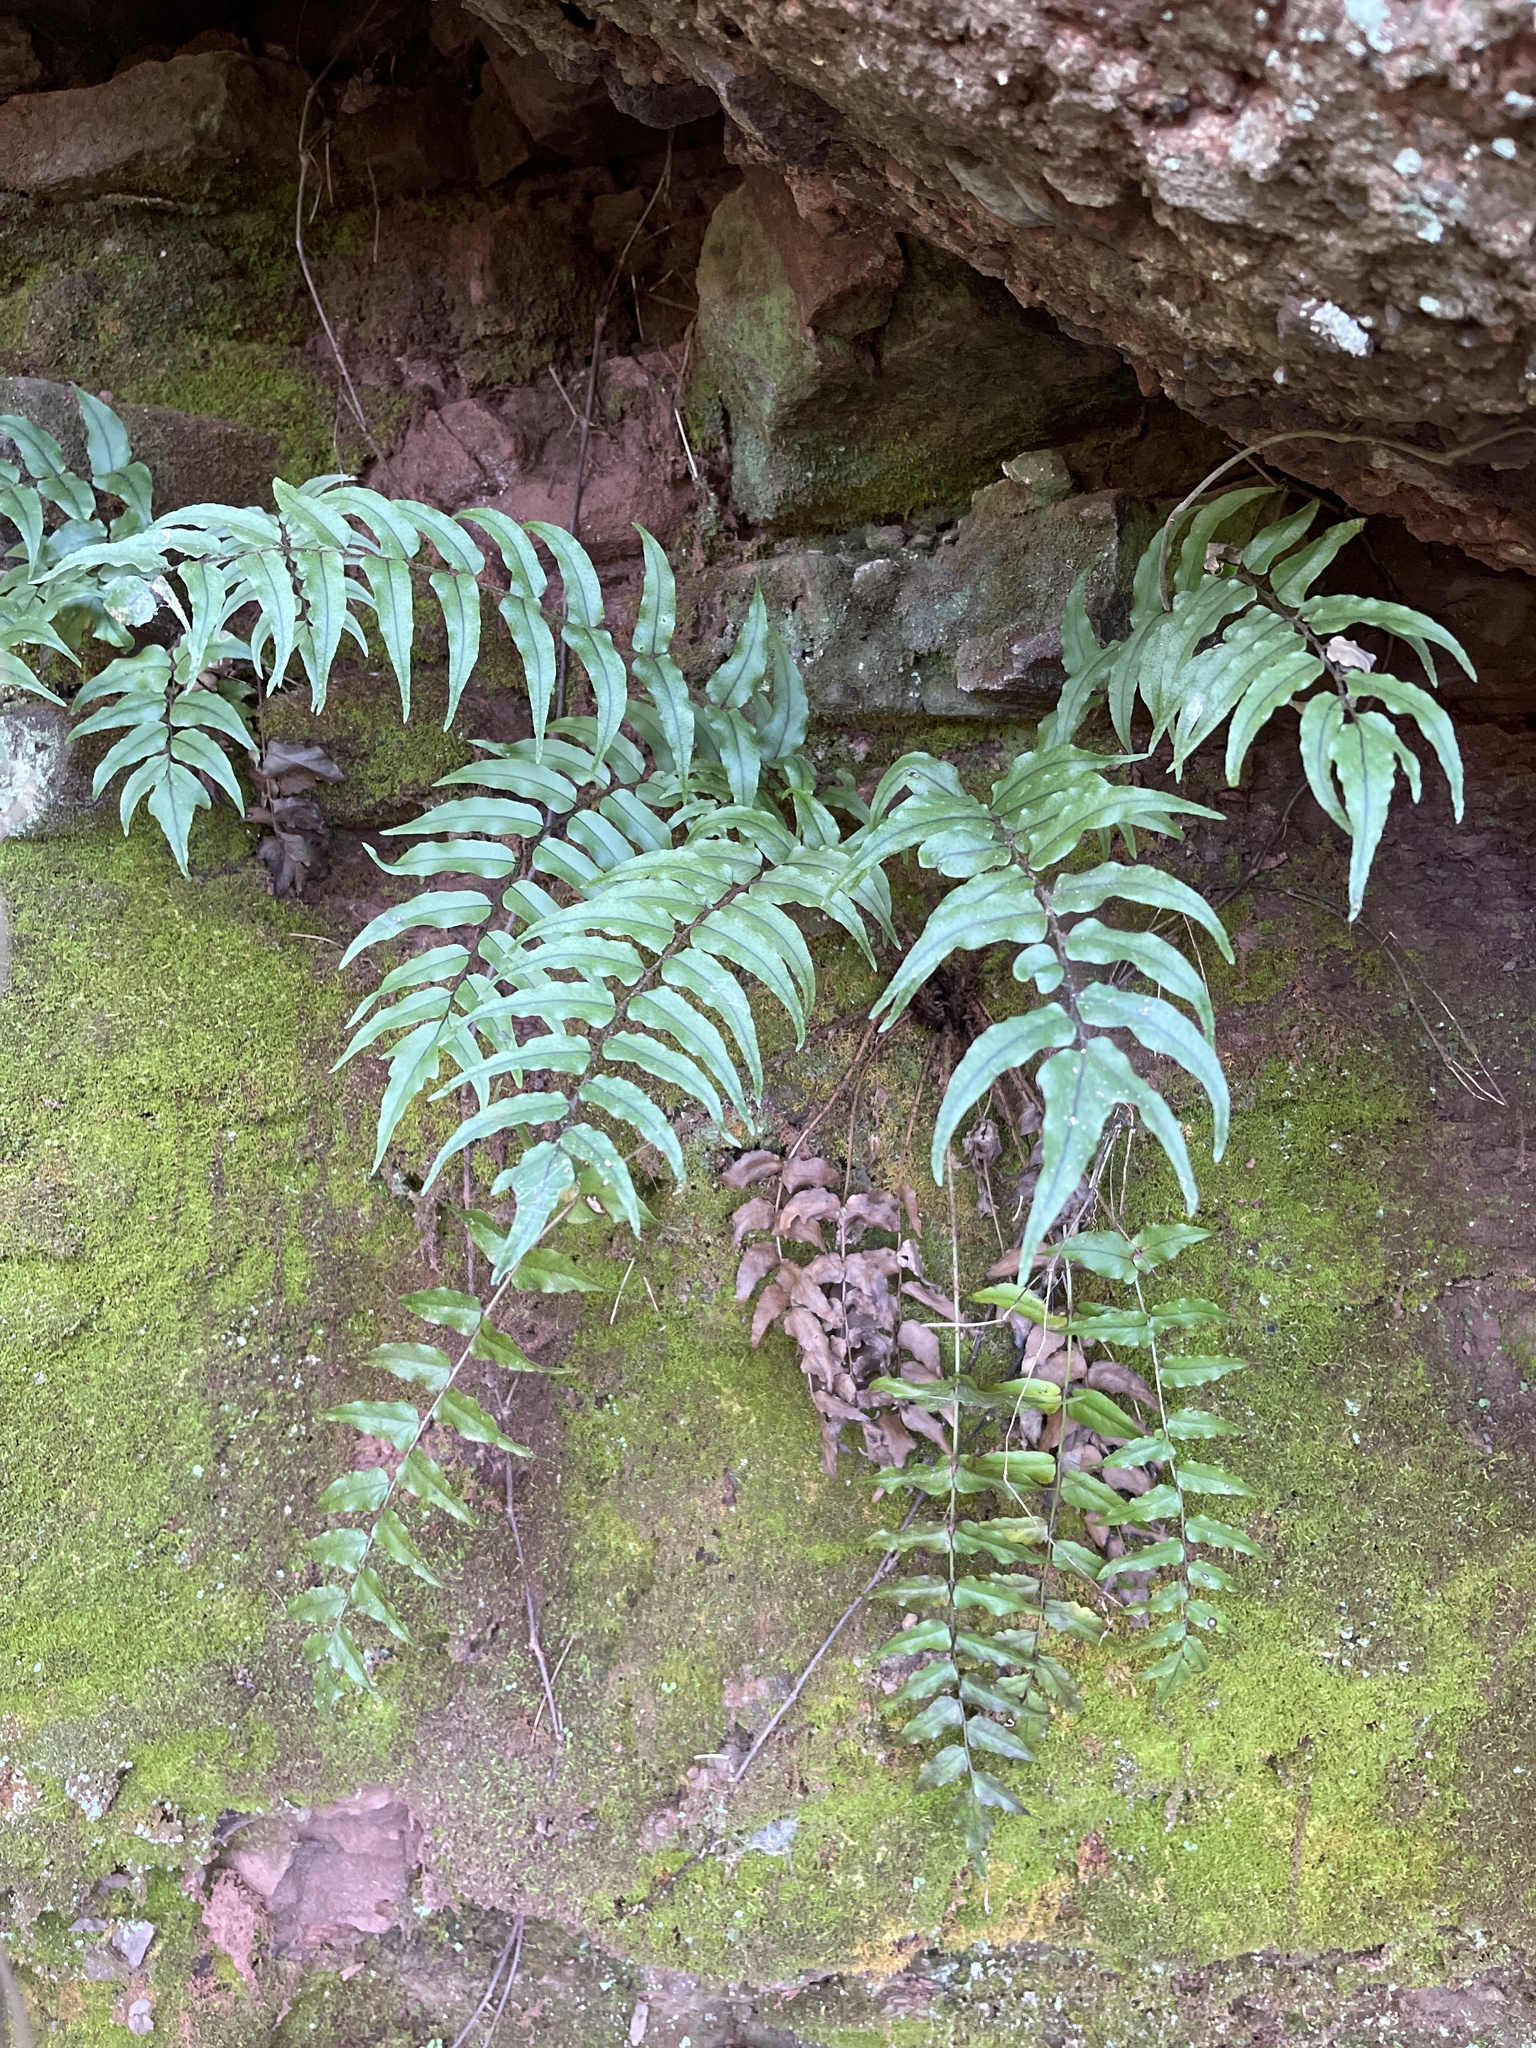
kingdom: Plantae
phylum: Tracheophyta
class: Polypodiopsida
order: Polypodiales
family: Dryopteridaceae
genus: Cyrtomium
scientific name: Cyrtomium fortunei
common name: Asian netvein hollyfern
